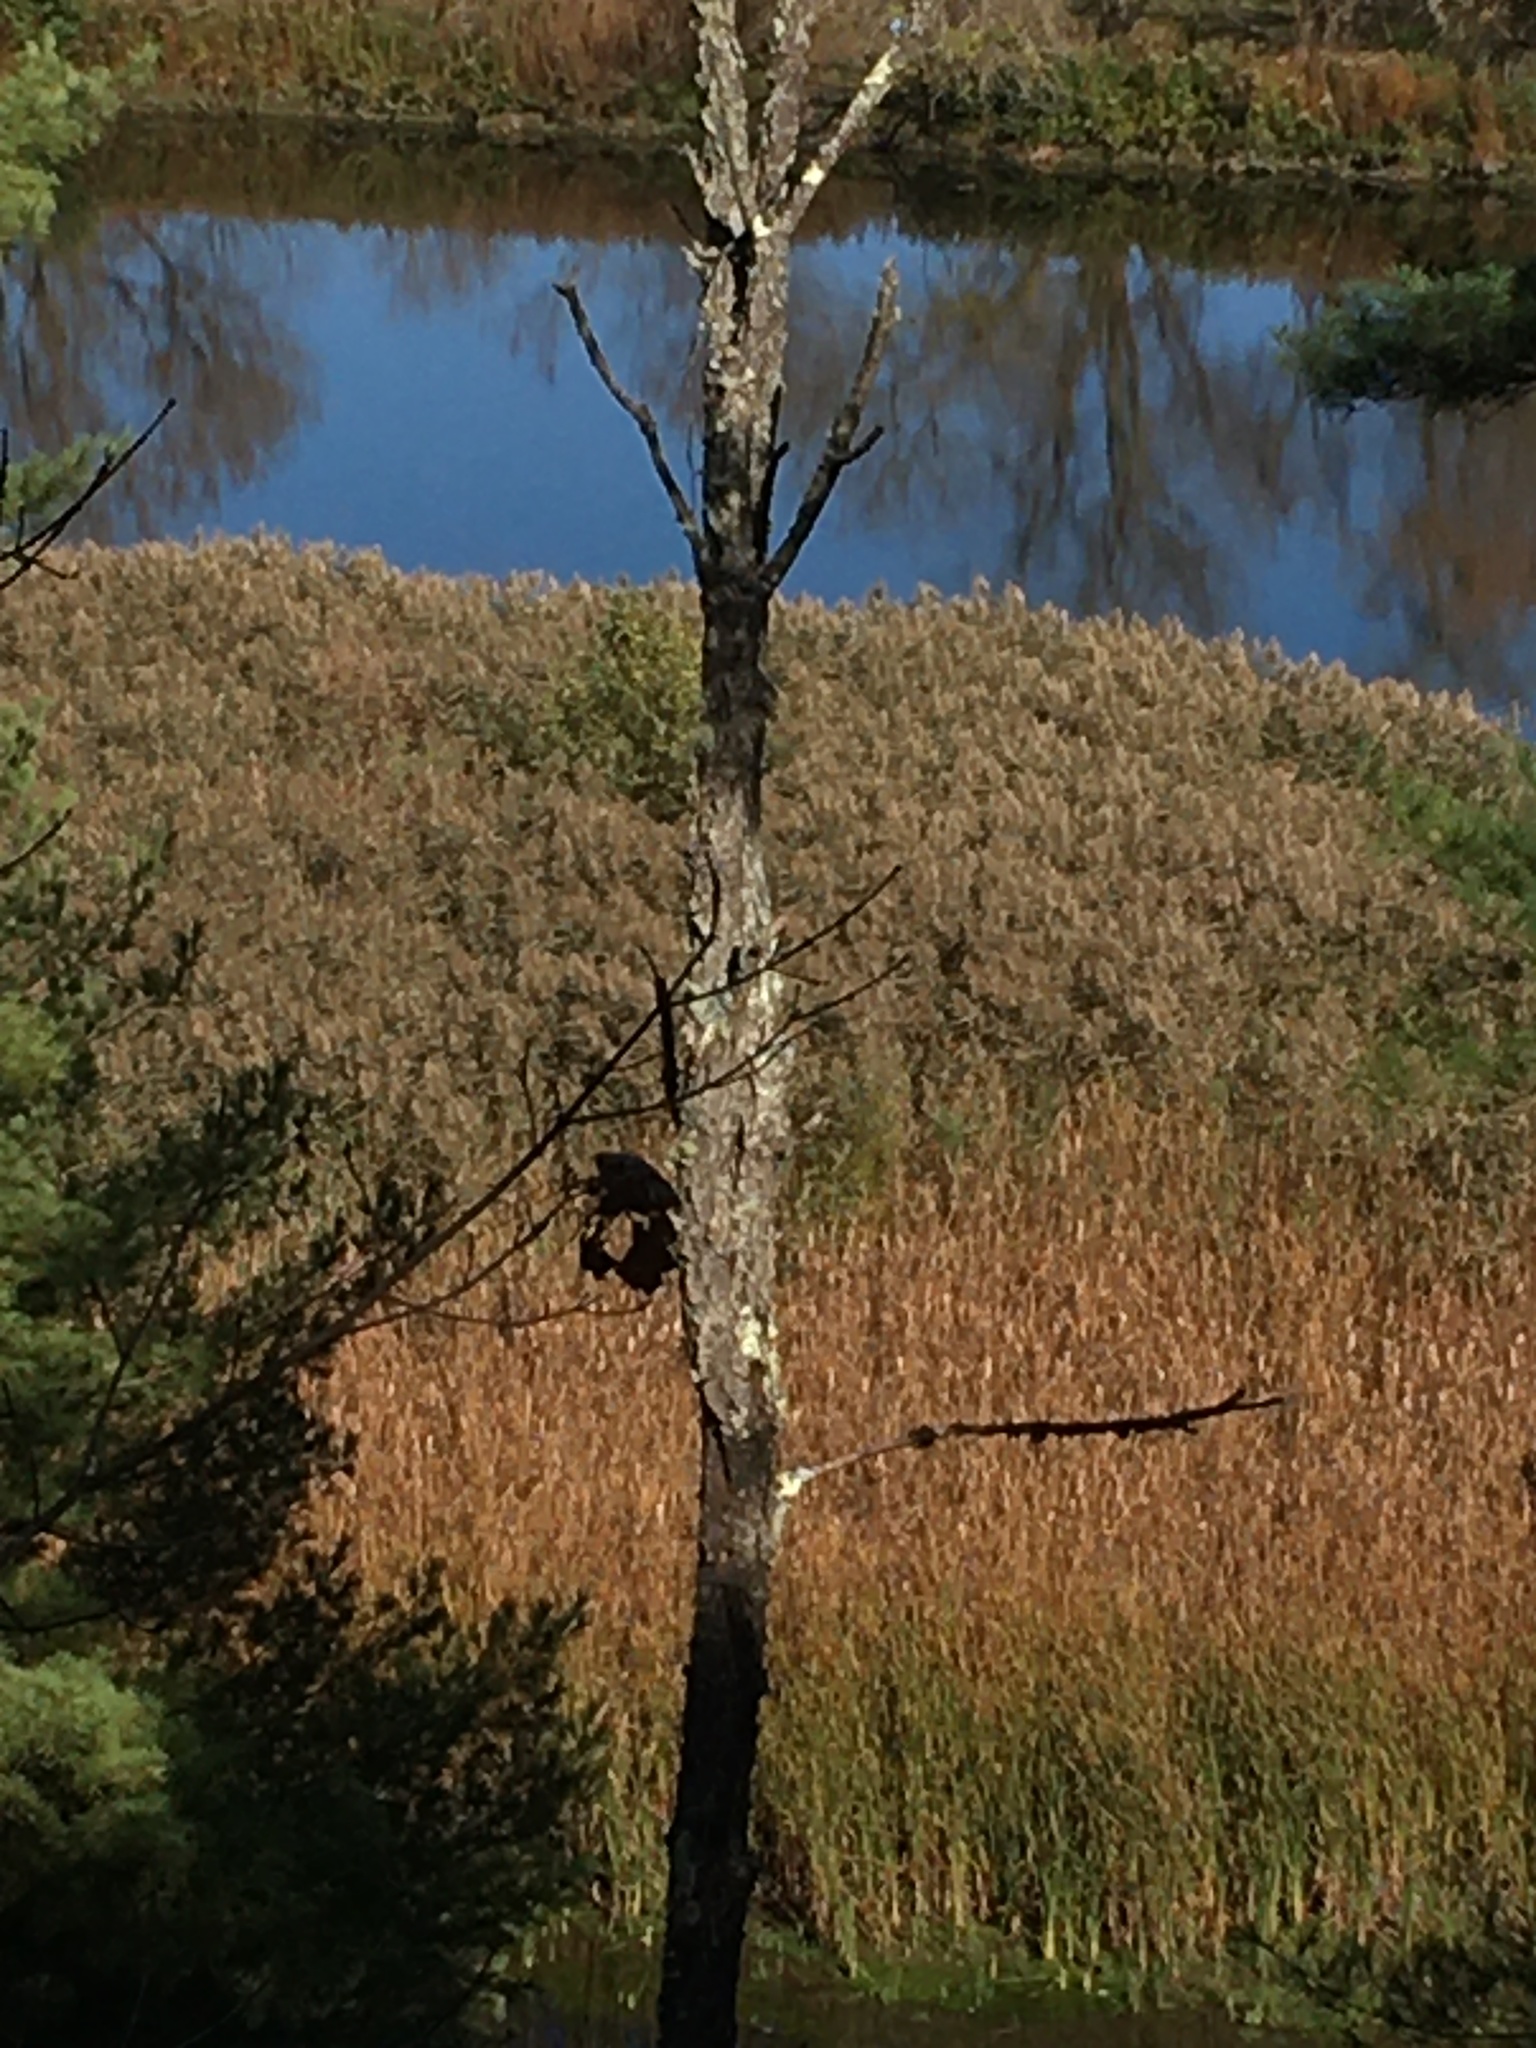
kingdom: Plantae
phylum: Tracheophyta
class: Liliopsida
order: Poales
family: Poaceae
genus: Phragmites
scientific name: Phragmites australis
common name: Common reed
